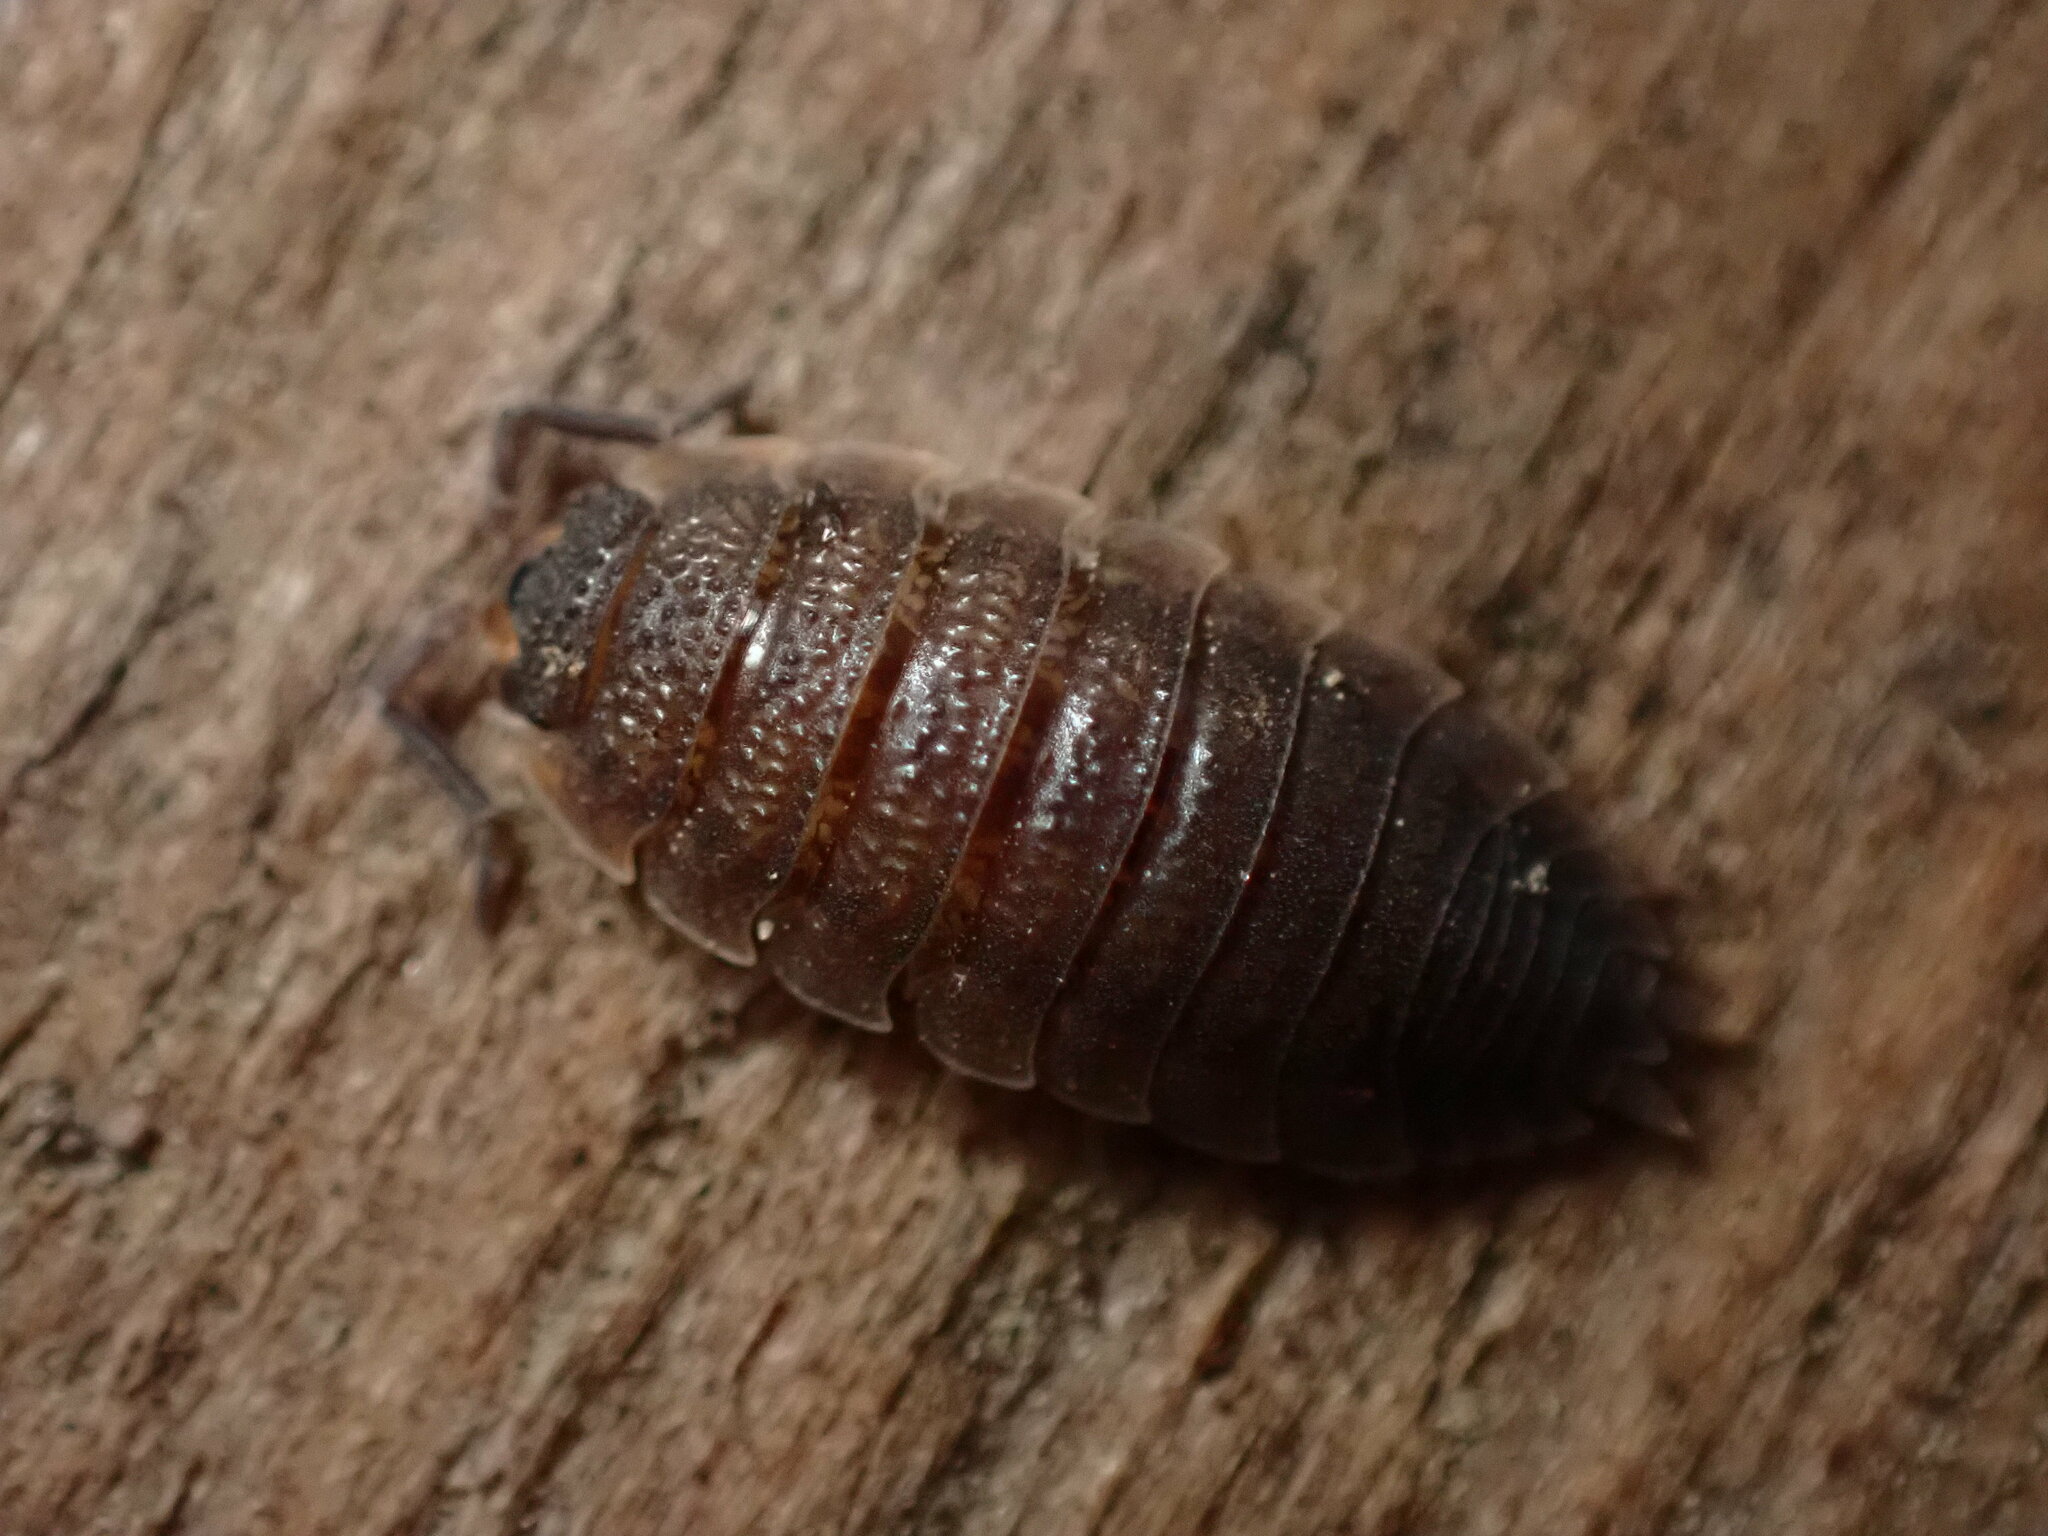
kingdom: Animalia
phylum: Arthropoda
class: Malacostraca
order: Isopoda
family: Porcellionidae
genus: Porcellio
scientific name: Porcellio scaber
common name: Common rough woodlouse
